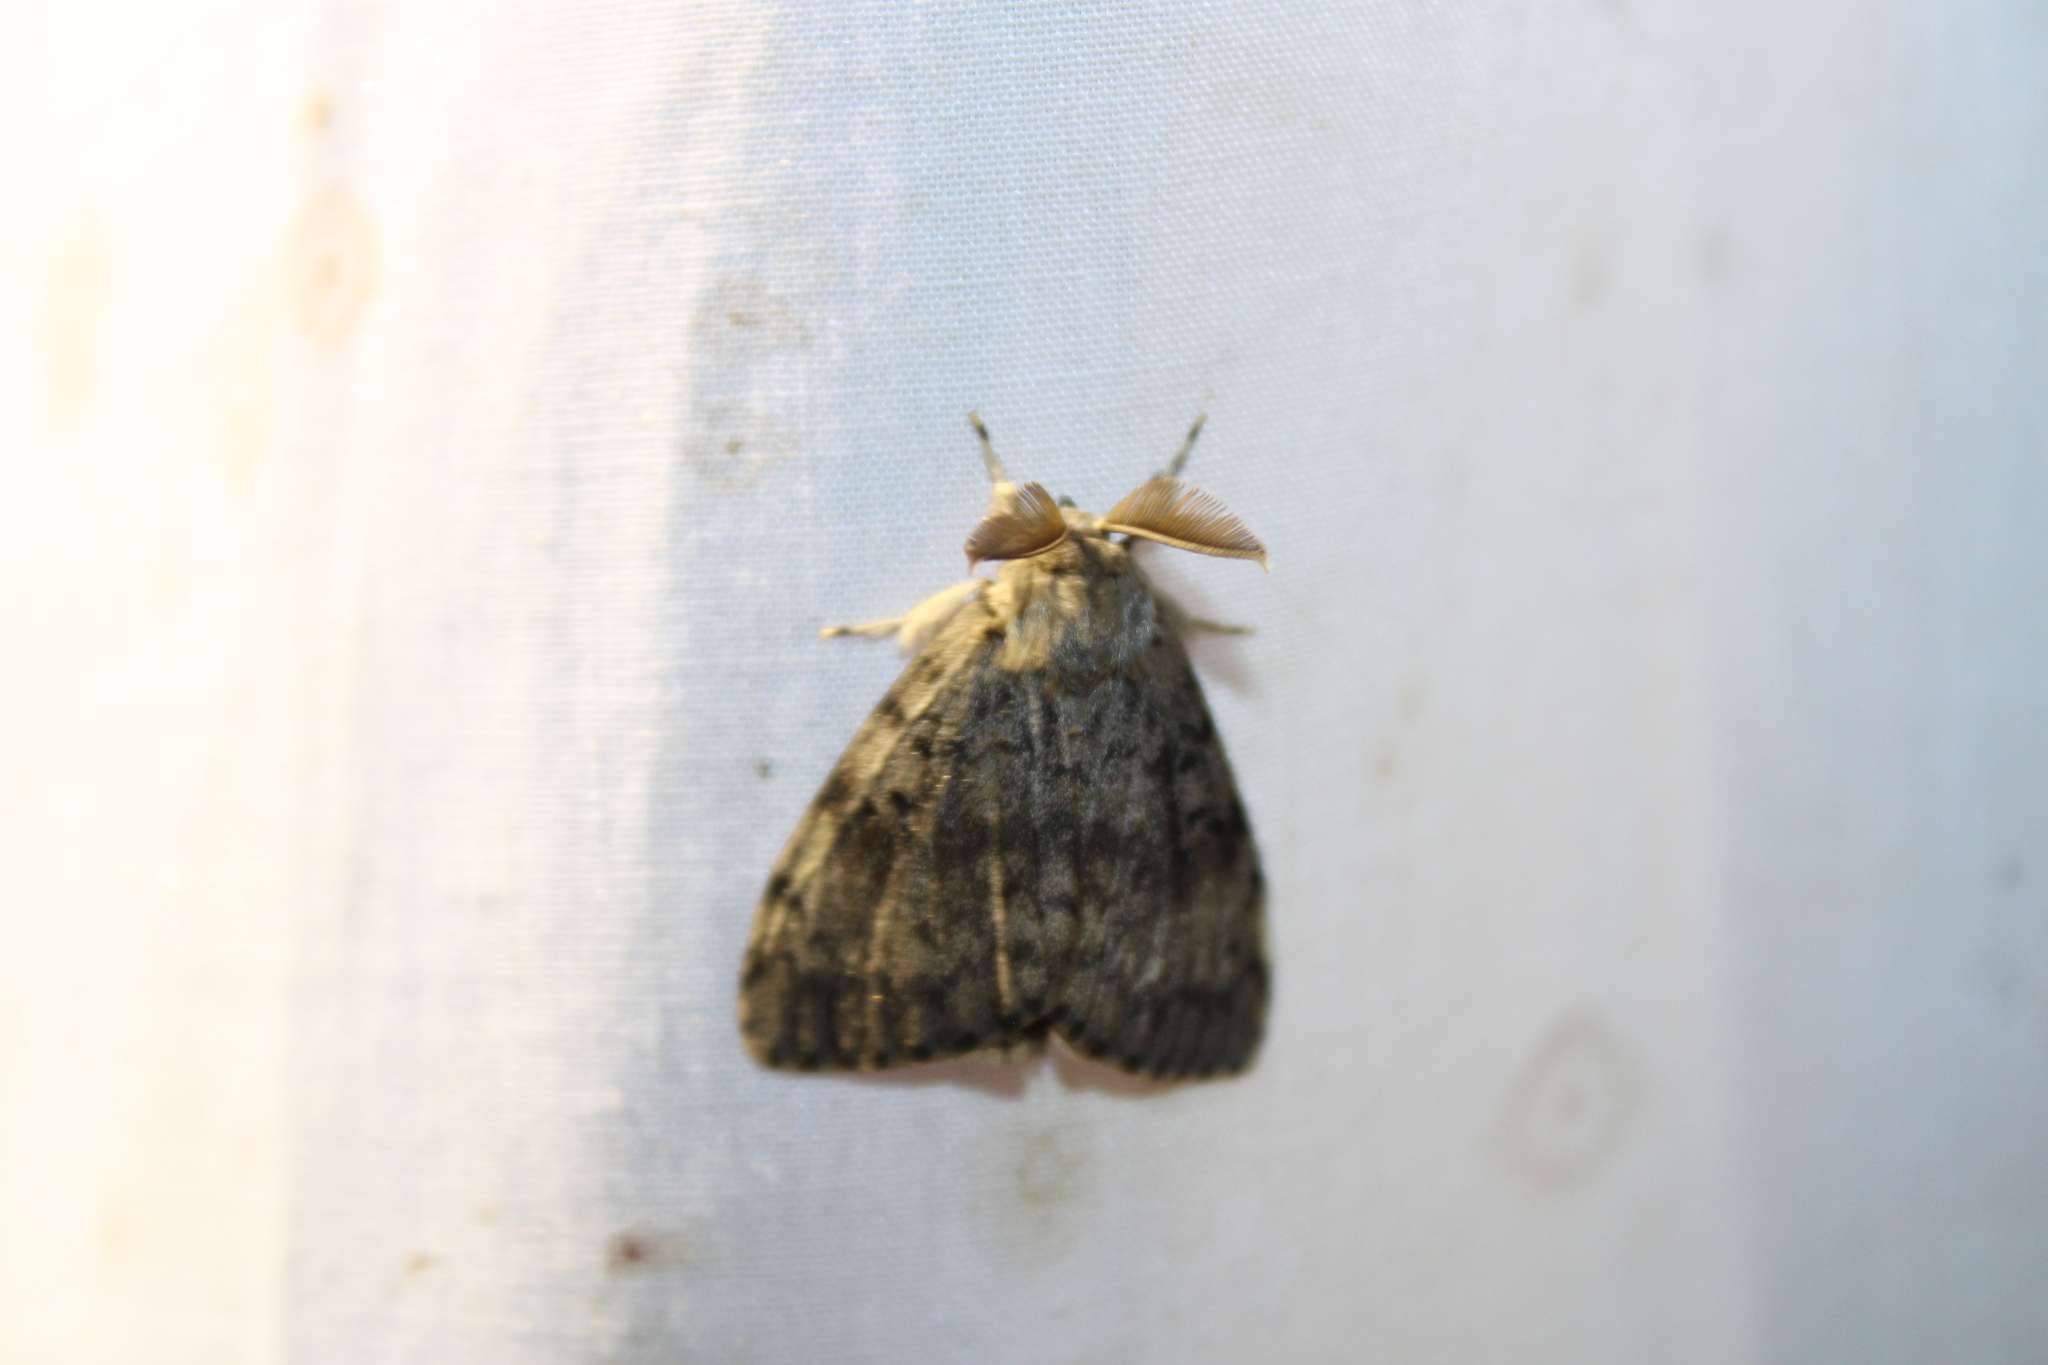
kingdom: Animalia
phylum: Arthropoda
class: Insecta
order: Lepidoptera
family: Erebidae
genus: Lymantria
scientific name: Lymantria dispar
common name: Gypsy moth
